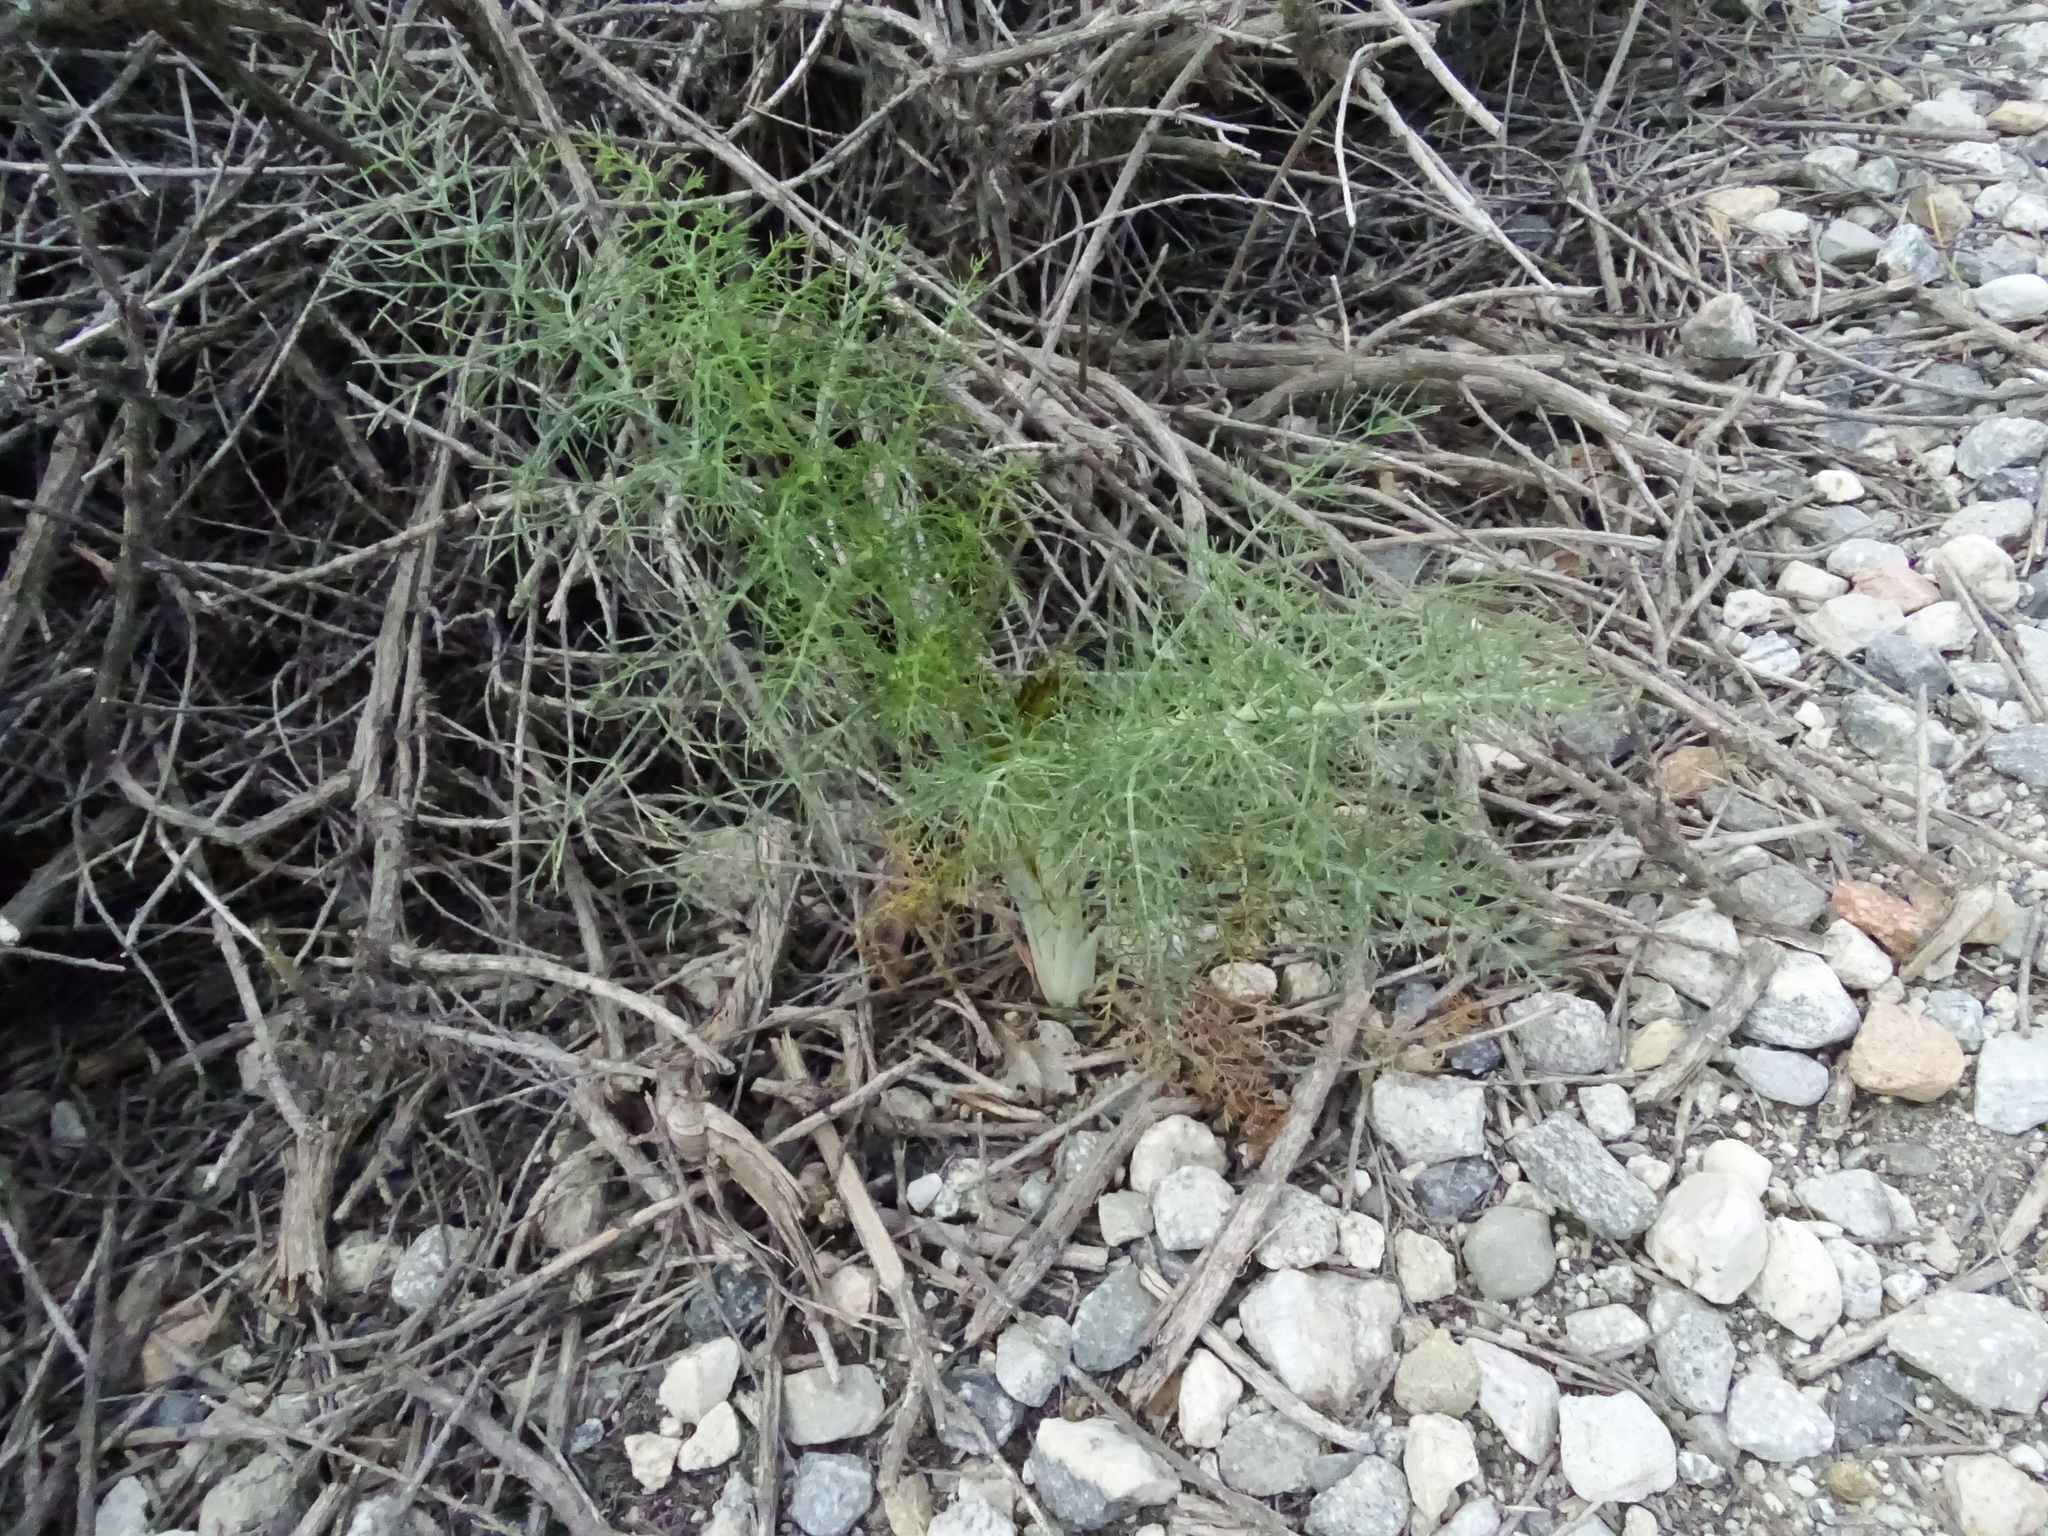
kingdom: Plantae
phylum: Tracheophyta
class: Magnoliopsida
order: Apiales
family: Apiaceae
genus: Foeniculum
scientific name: Foeniculum vulgare
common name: Fennel
